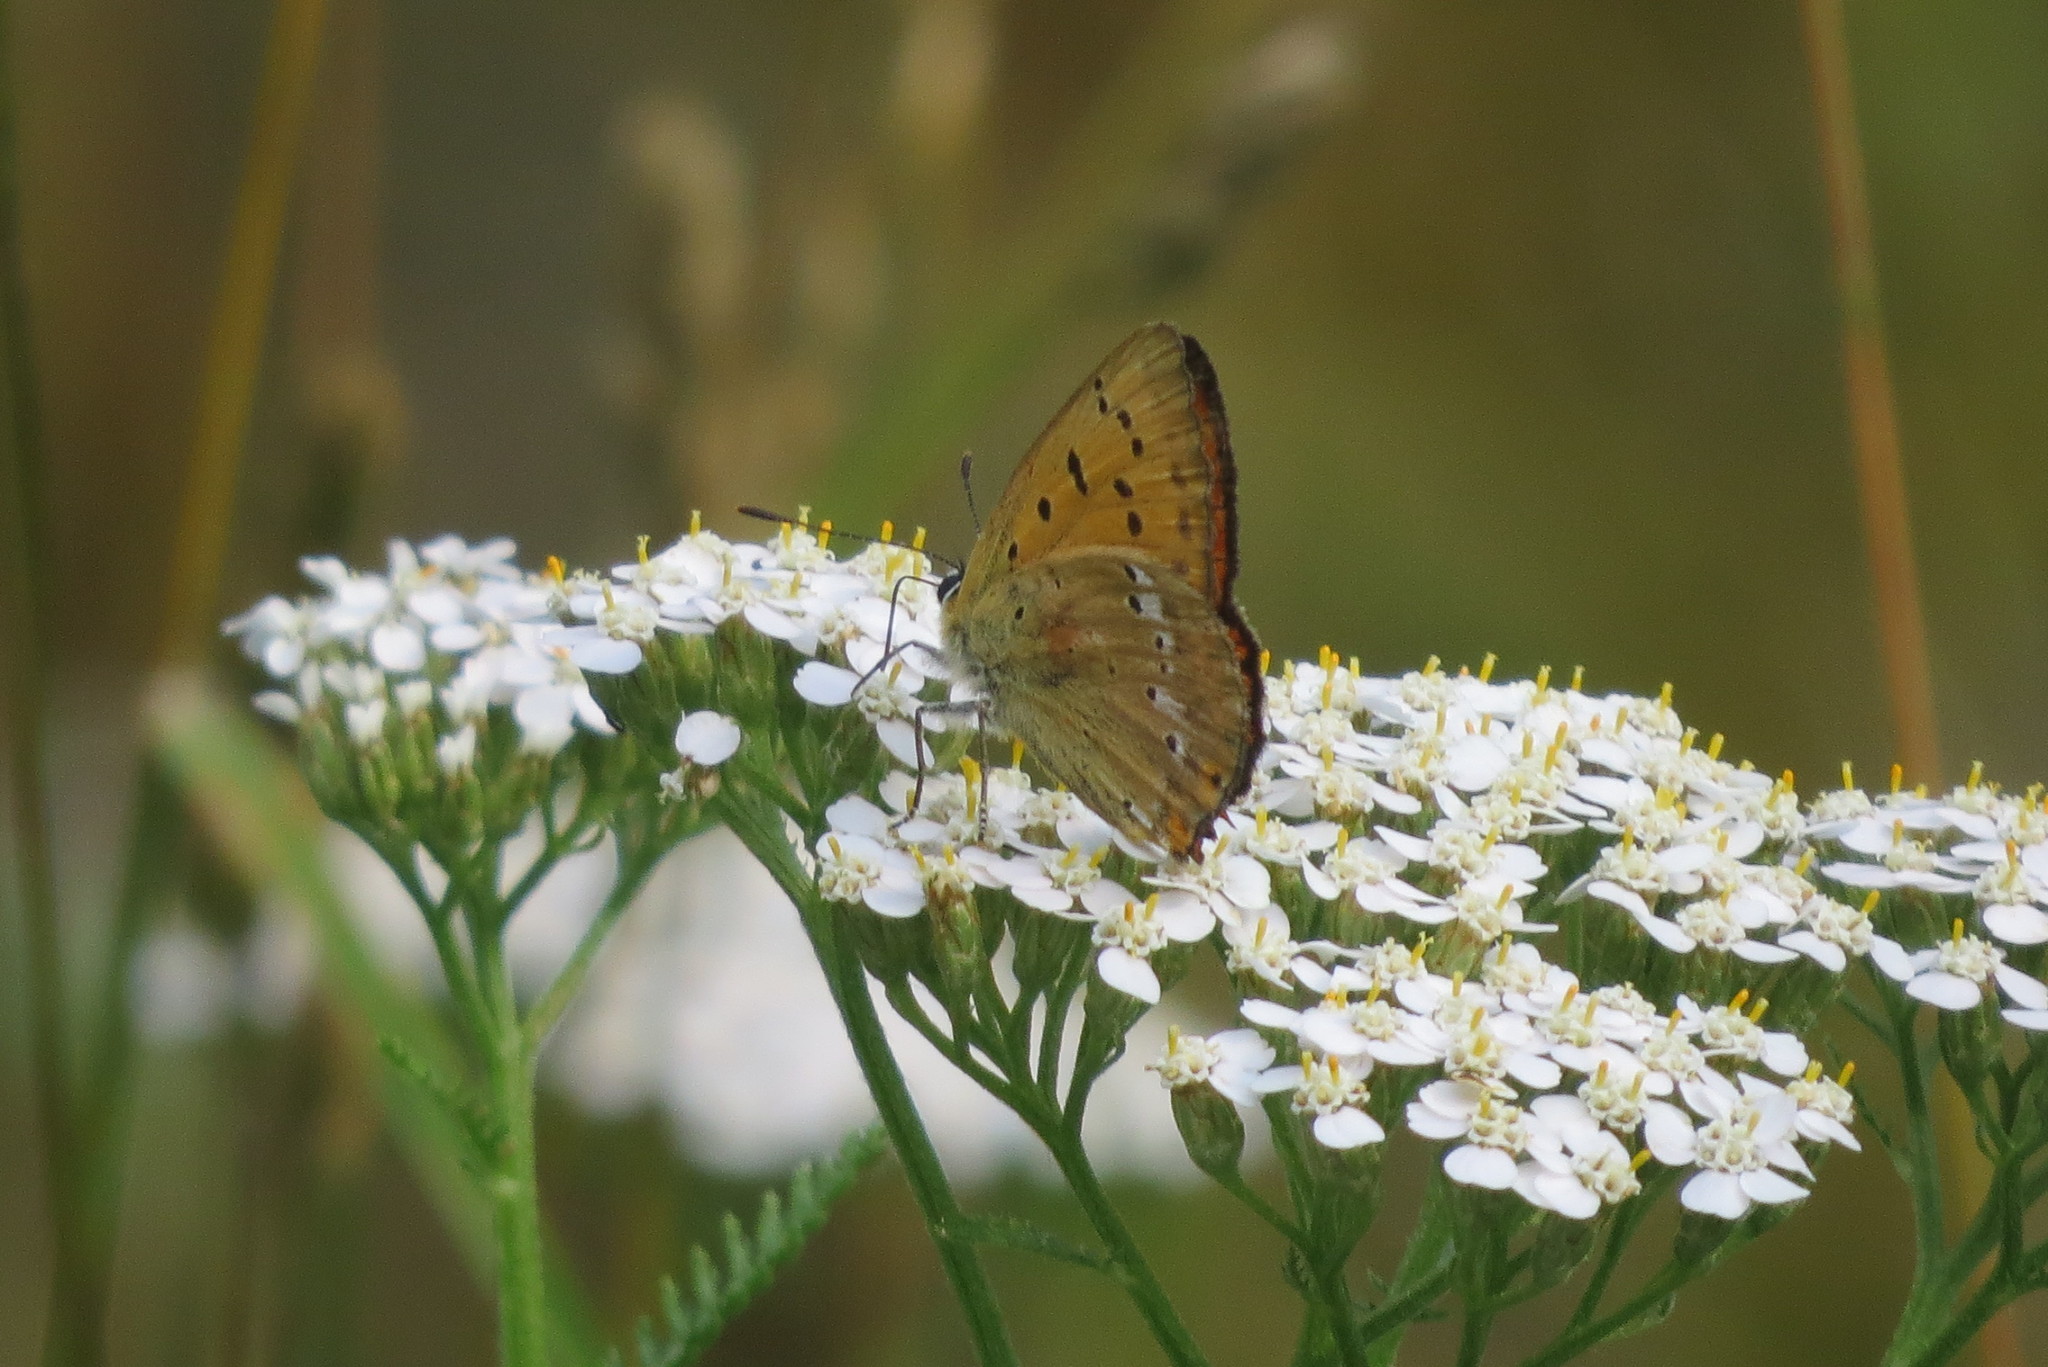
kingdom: Animalia
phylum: Arthropoda
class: Insecta
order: Lepidoptera
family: Lycaenidae
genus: Lycaena
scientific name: Lycaena virgaureae
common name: Scarce copper
